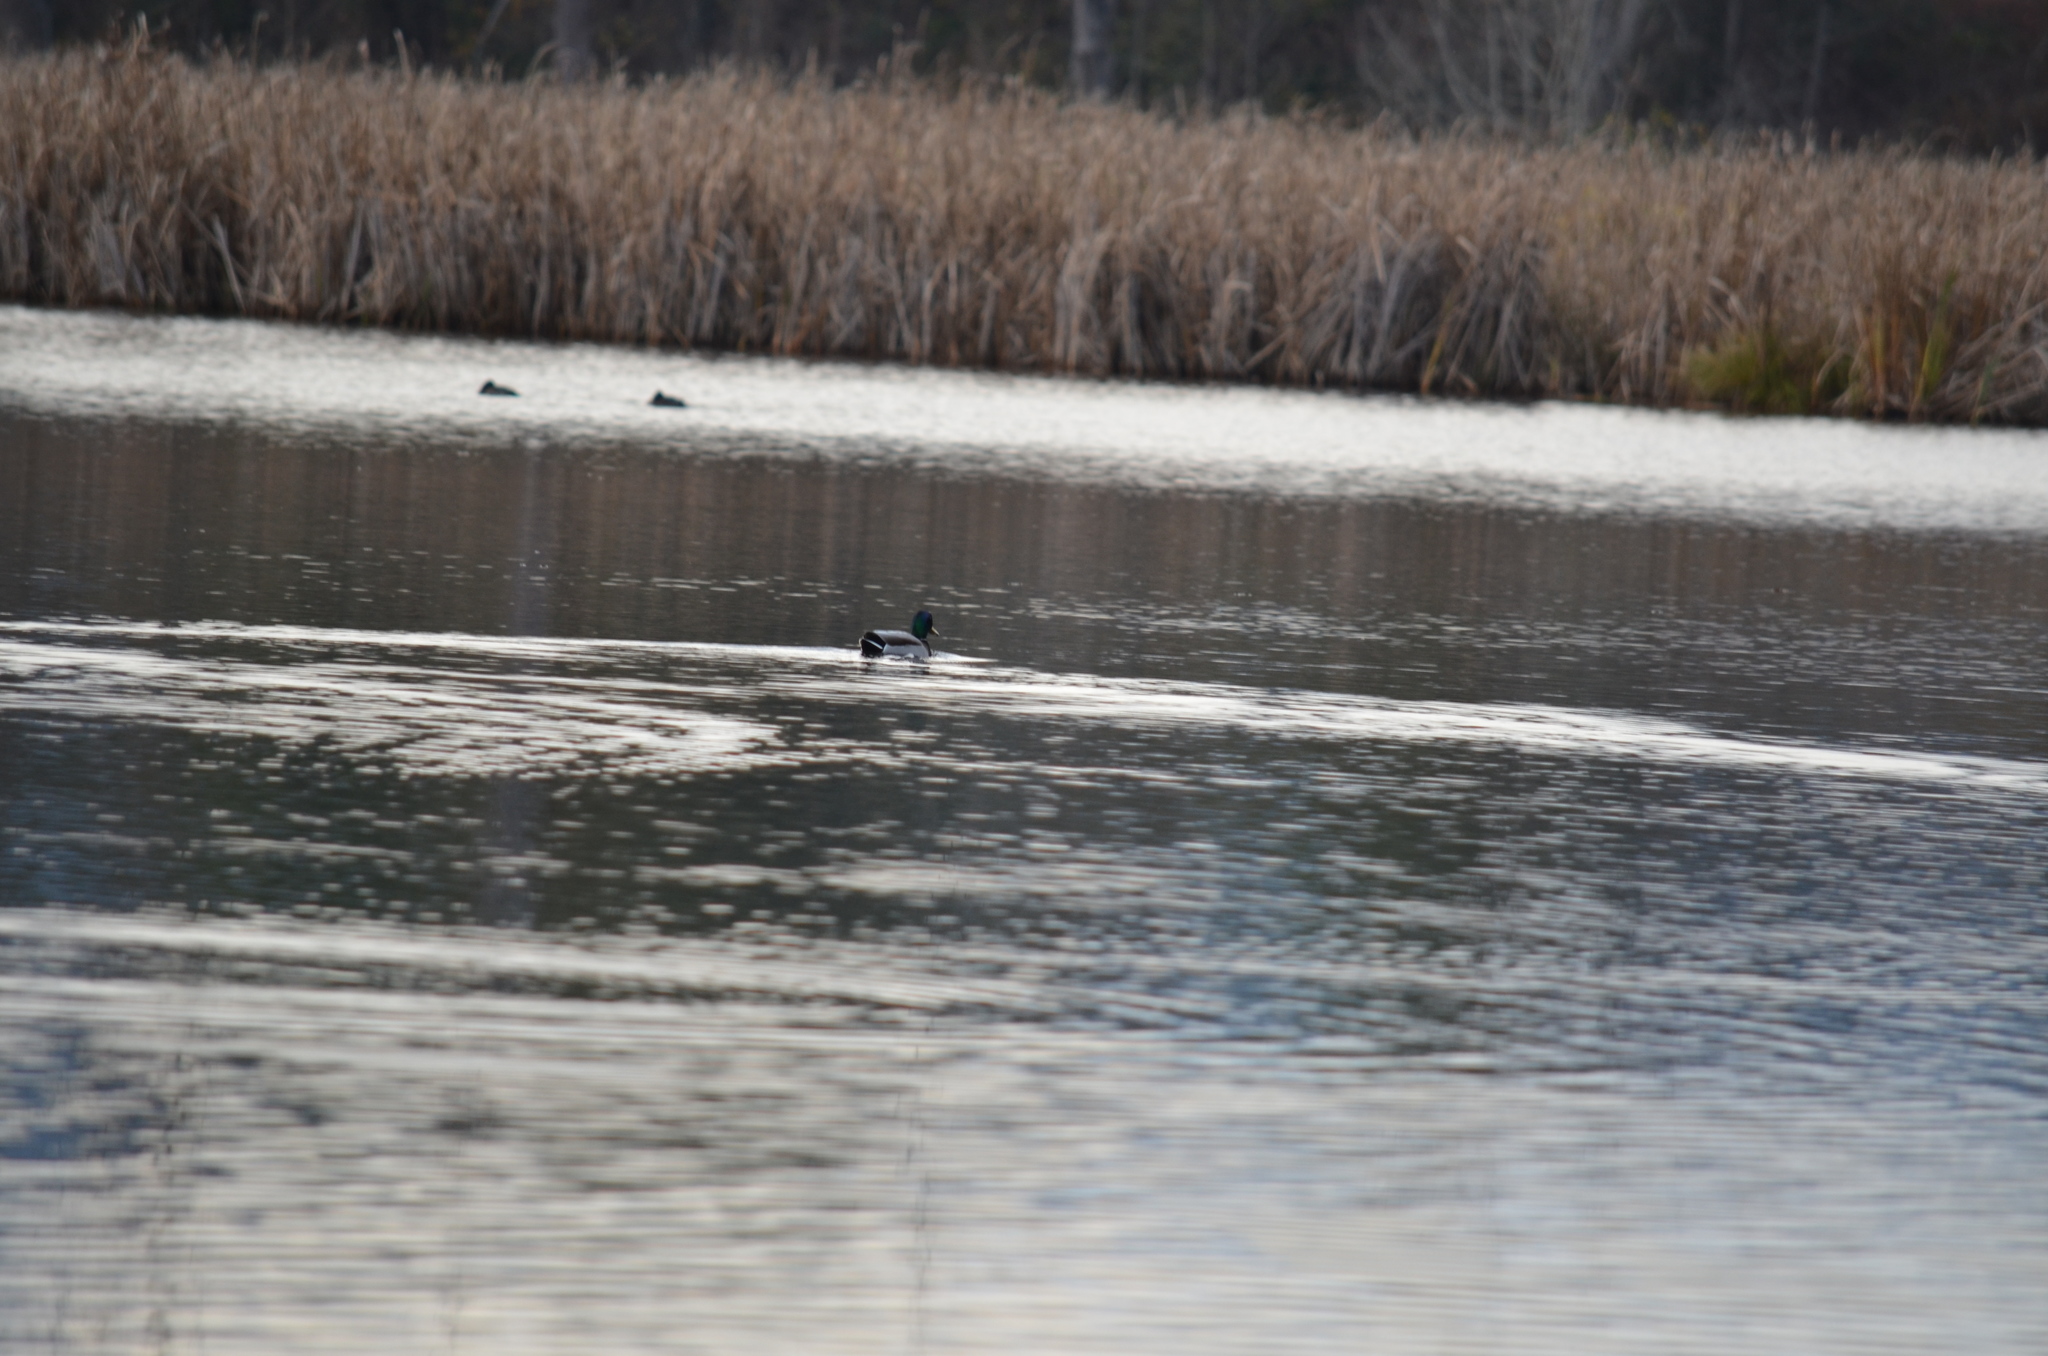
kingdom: Animalia
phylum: Chordata
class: Aves
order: Anseriformes
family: Anatidae
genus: Anas
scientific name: Anas platyrhynchos
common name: Mallard
